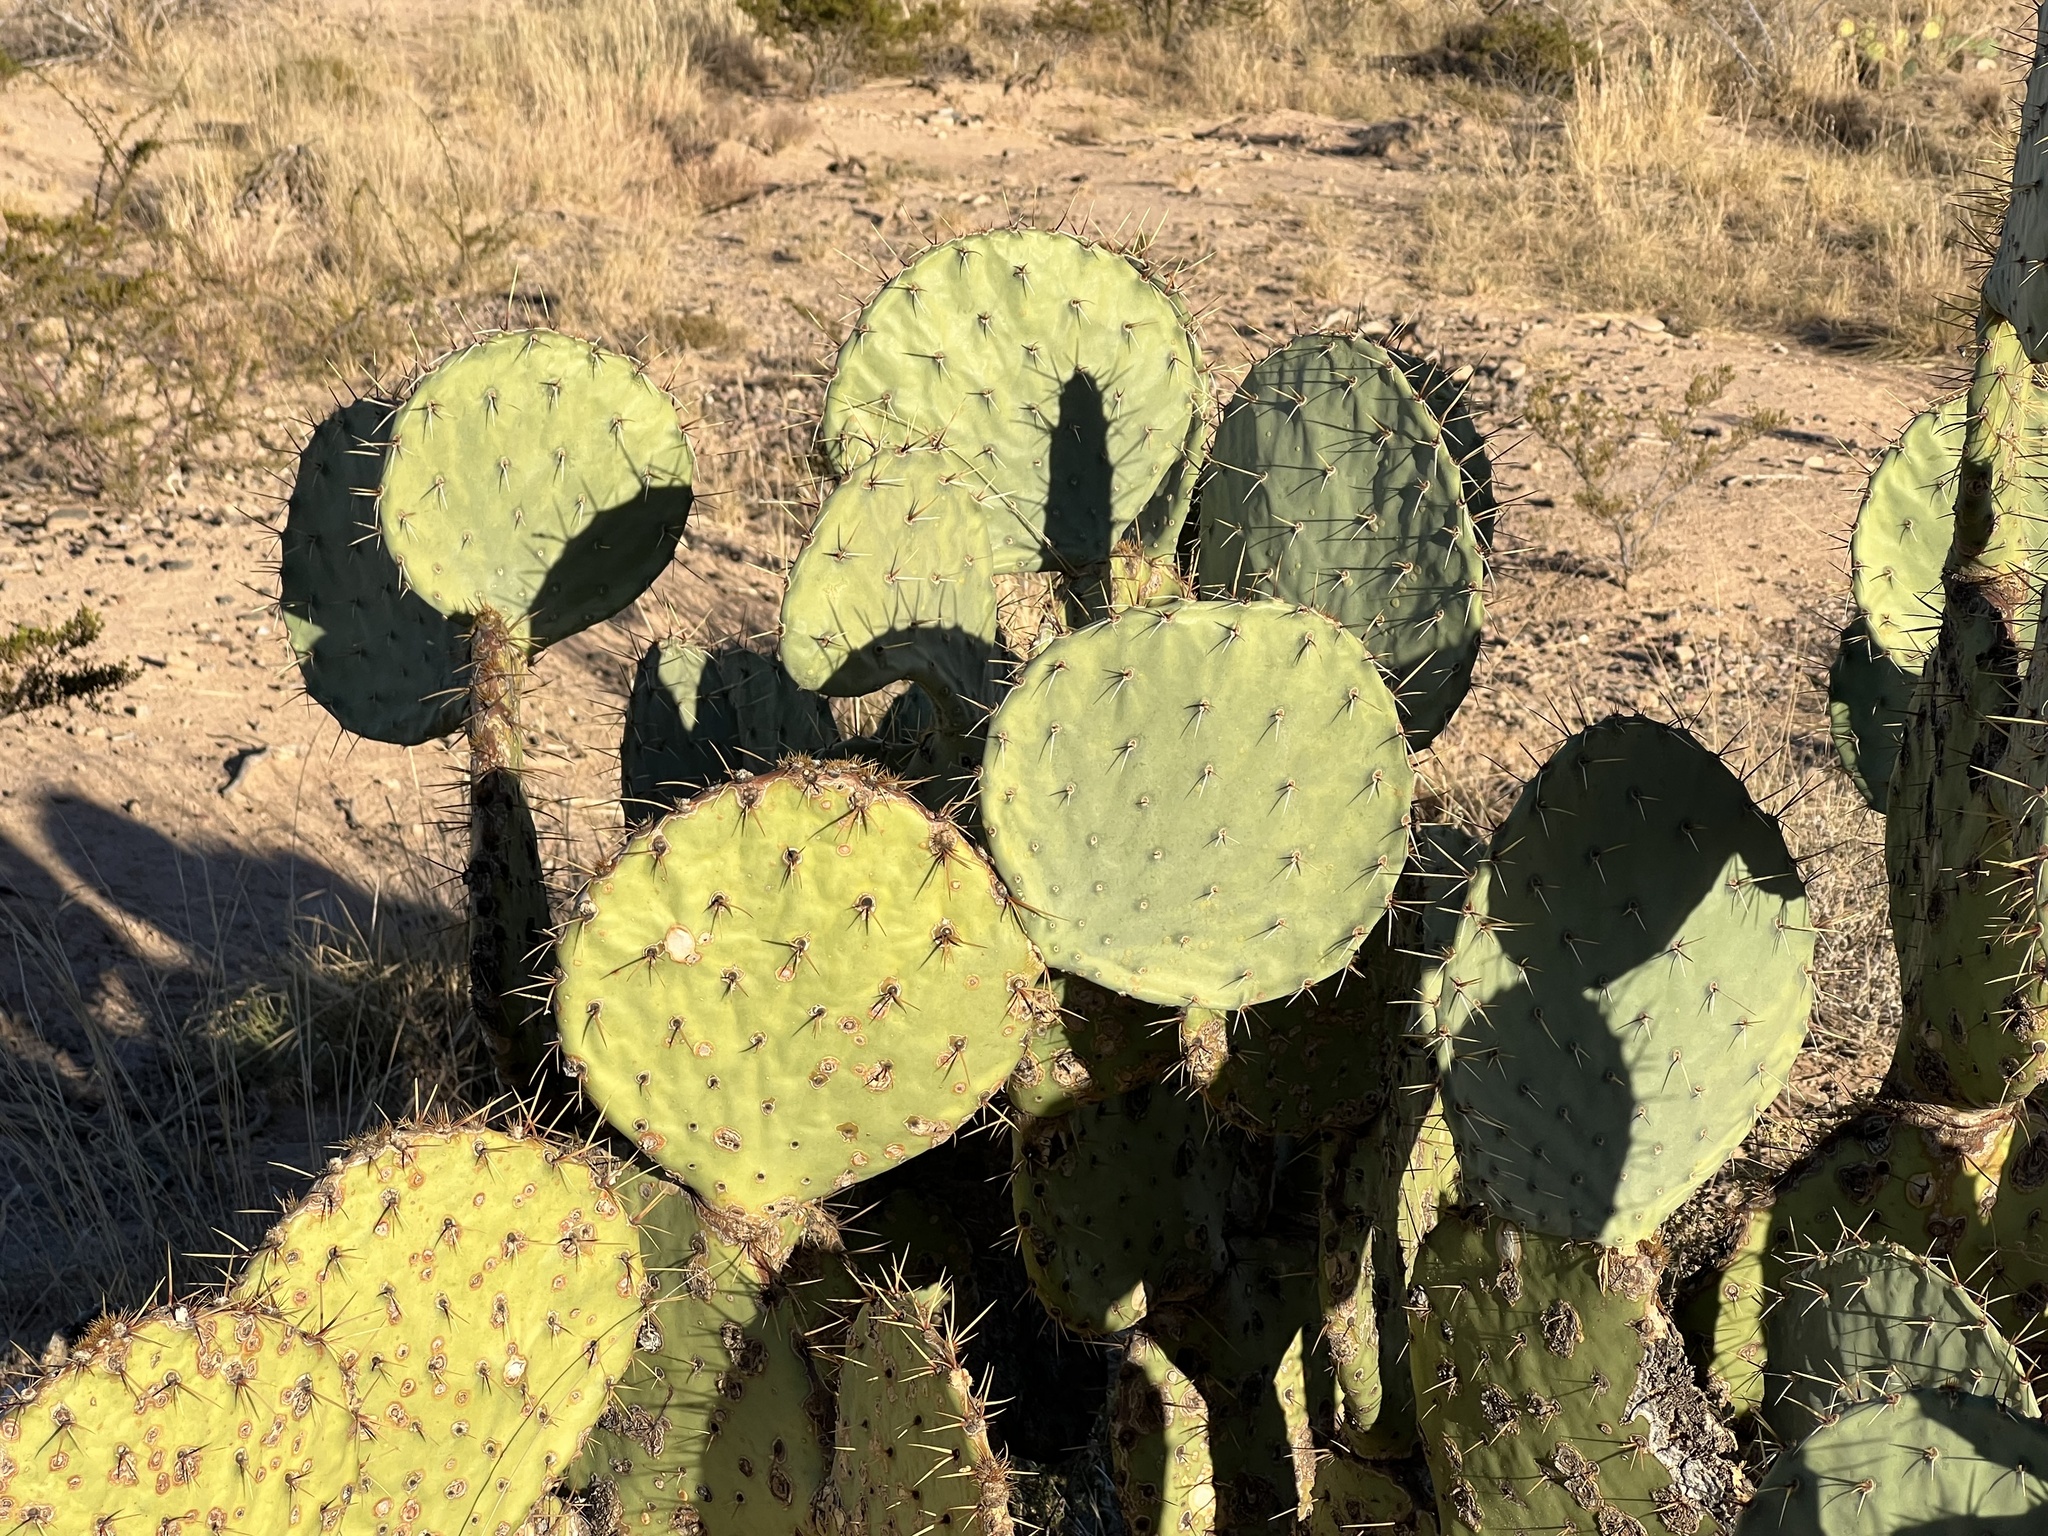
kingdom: Plantae
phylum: Tracheophyta
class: Magnoliopsida
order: Caryophyllales
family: Cactaceae
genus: Opuntia
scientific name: Opuntia engelmannii
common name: Cactus-apple
